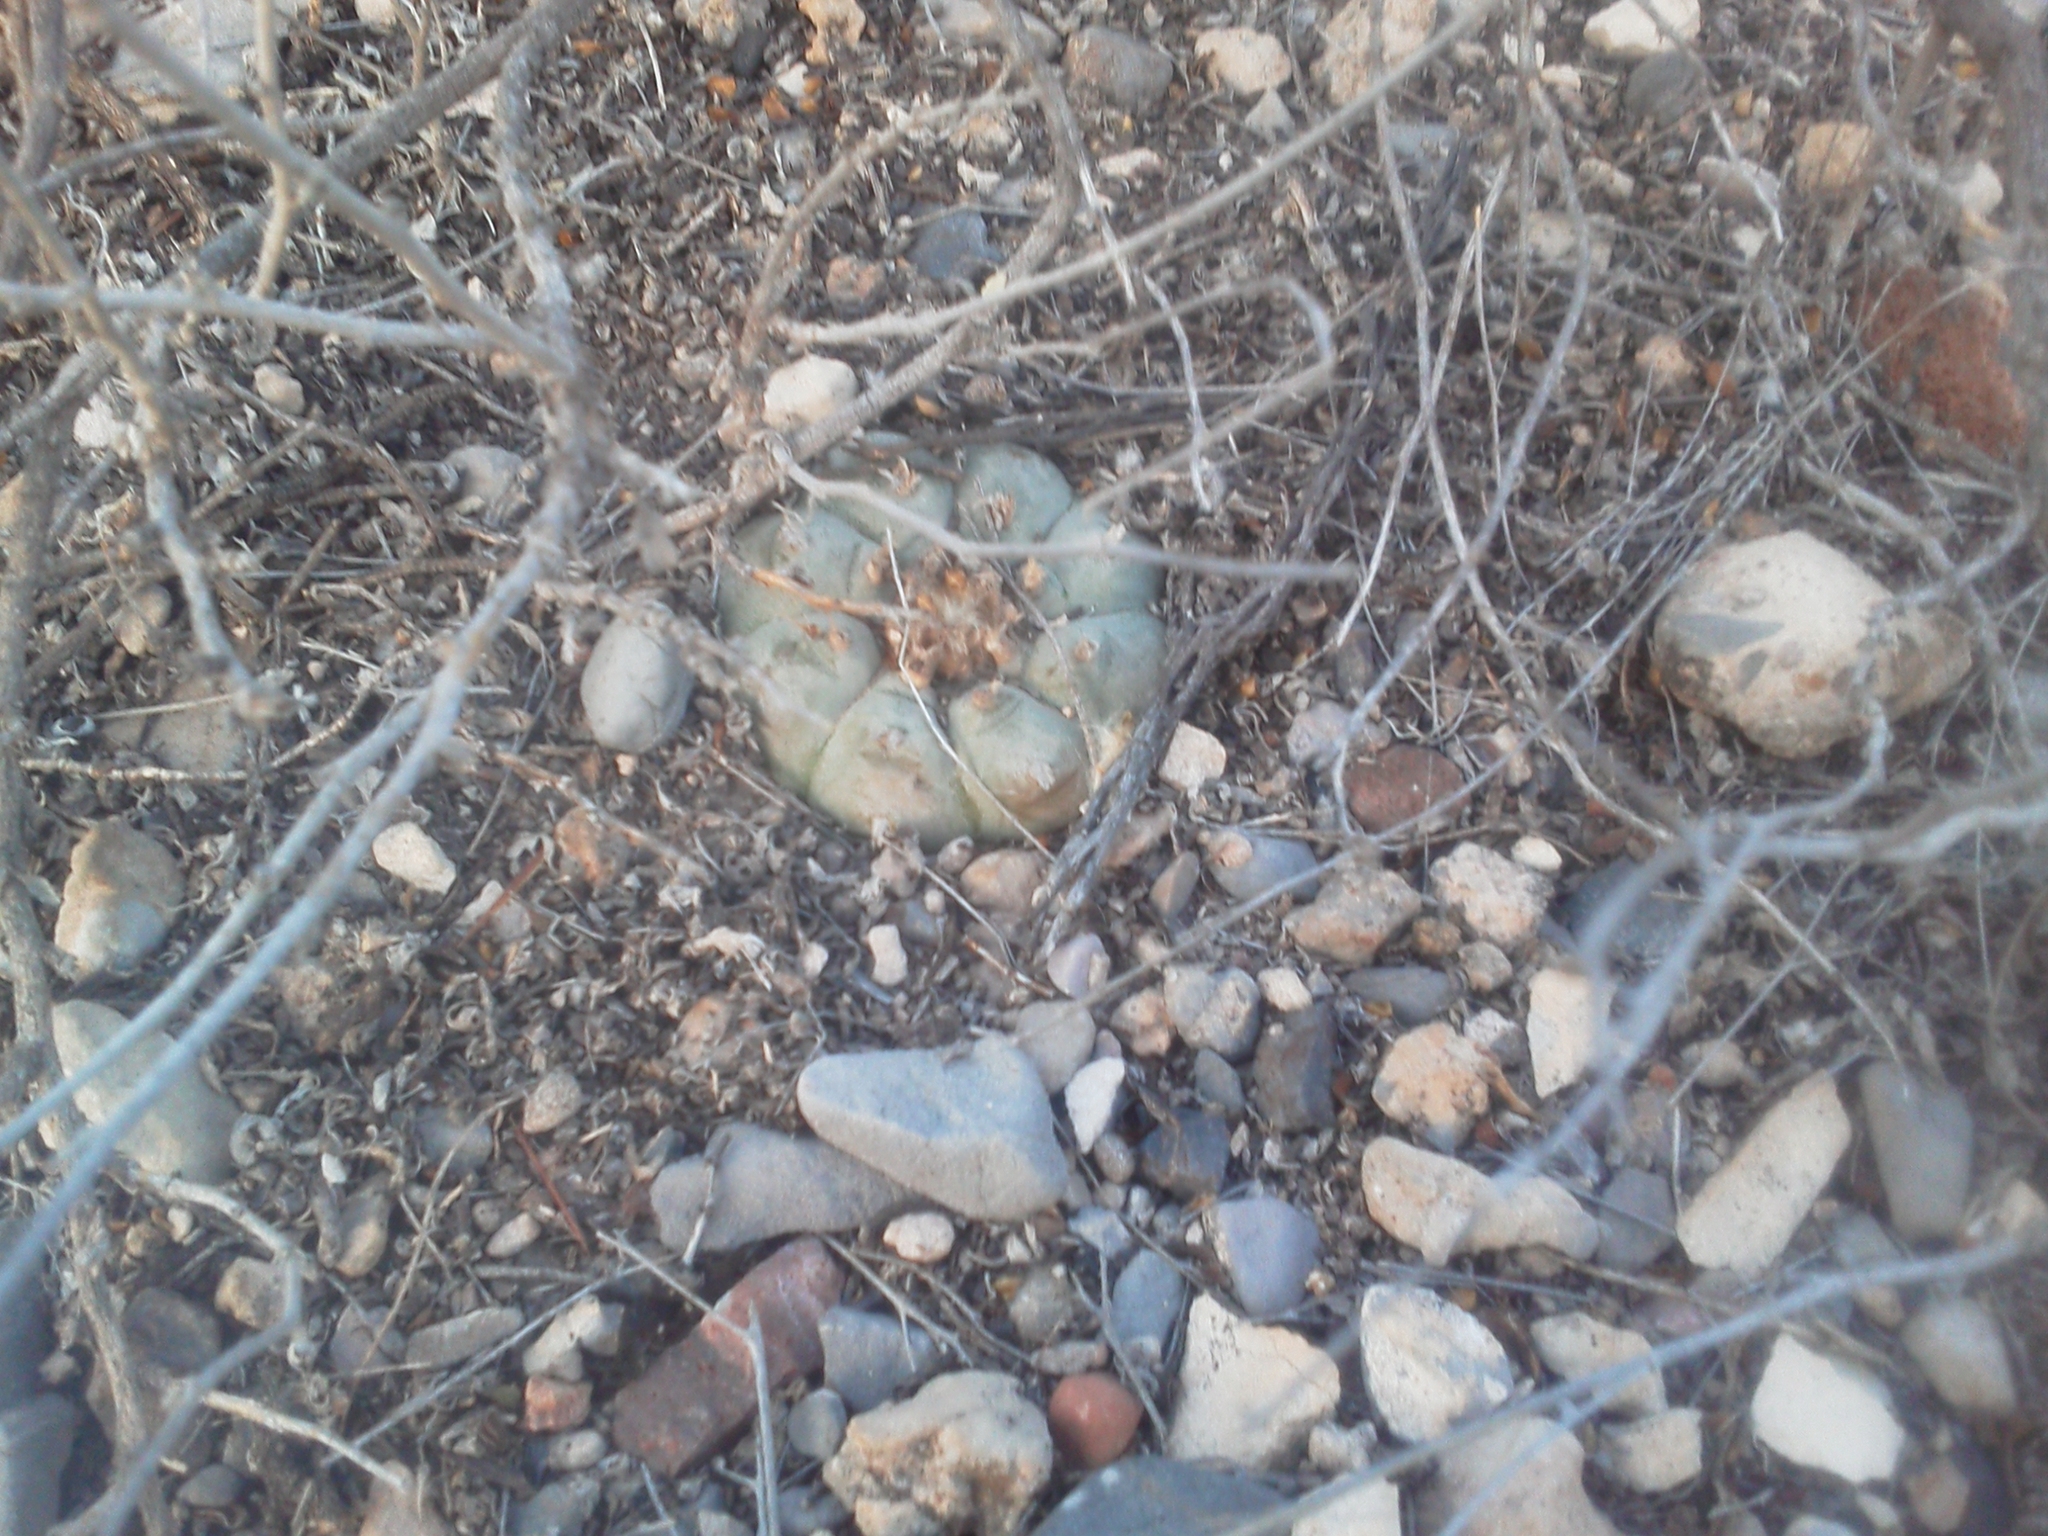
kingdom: Plantae
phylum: Tracheophyta
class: Magnoliopsida
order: Caryophyllales
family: Cactaceae
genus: Lophophora
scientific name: Lophophora williamsii
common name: Indian-dope
